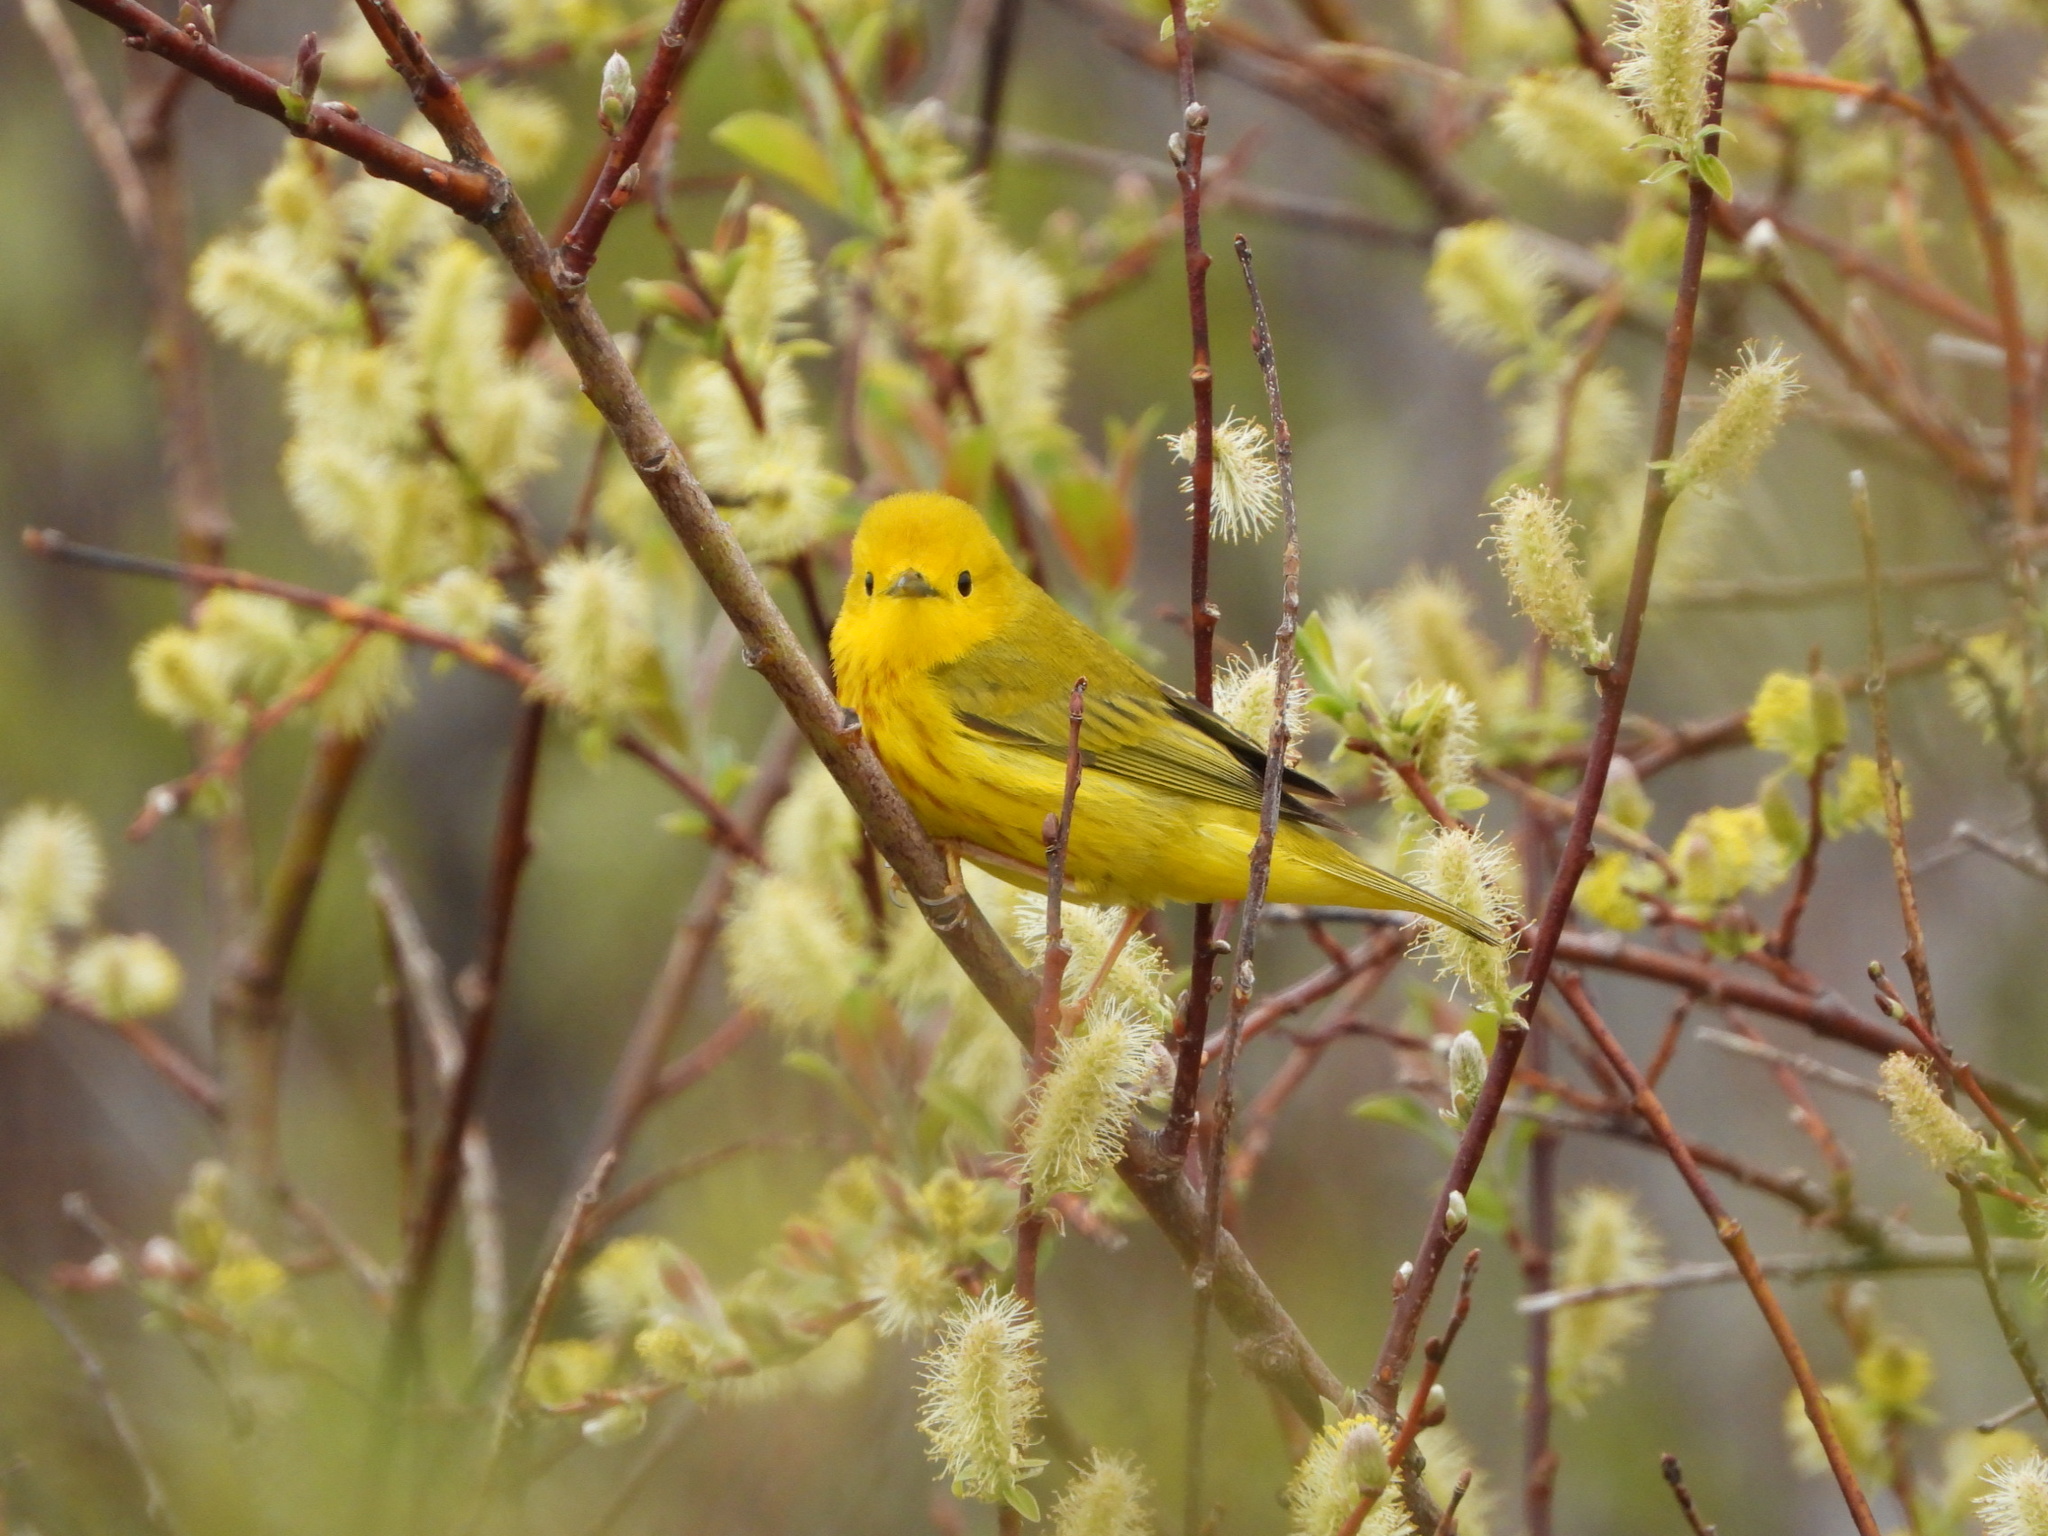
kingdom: Animalia
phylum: Chordata
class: Aves
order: Passeriformes
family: Parulidae
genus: Setophaga
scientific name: Setophaga petechia
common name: Yellow warbler
